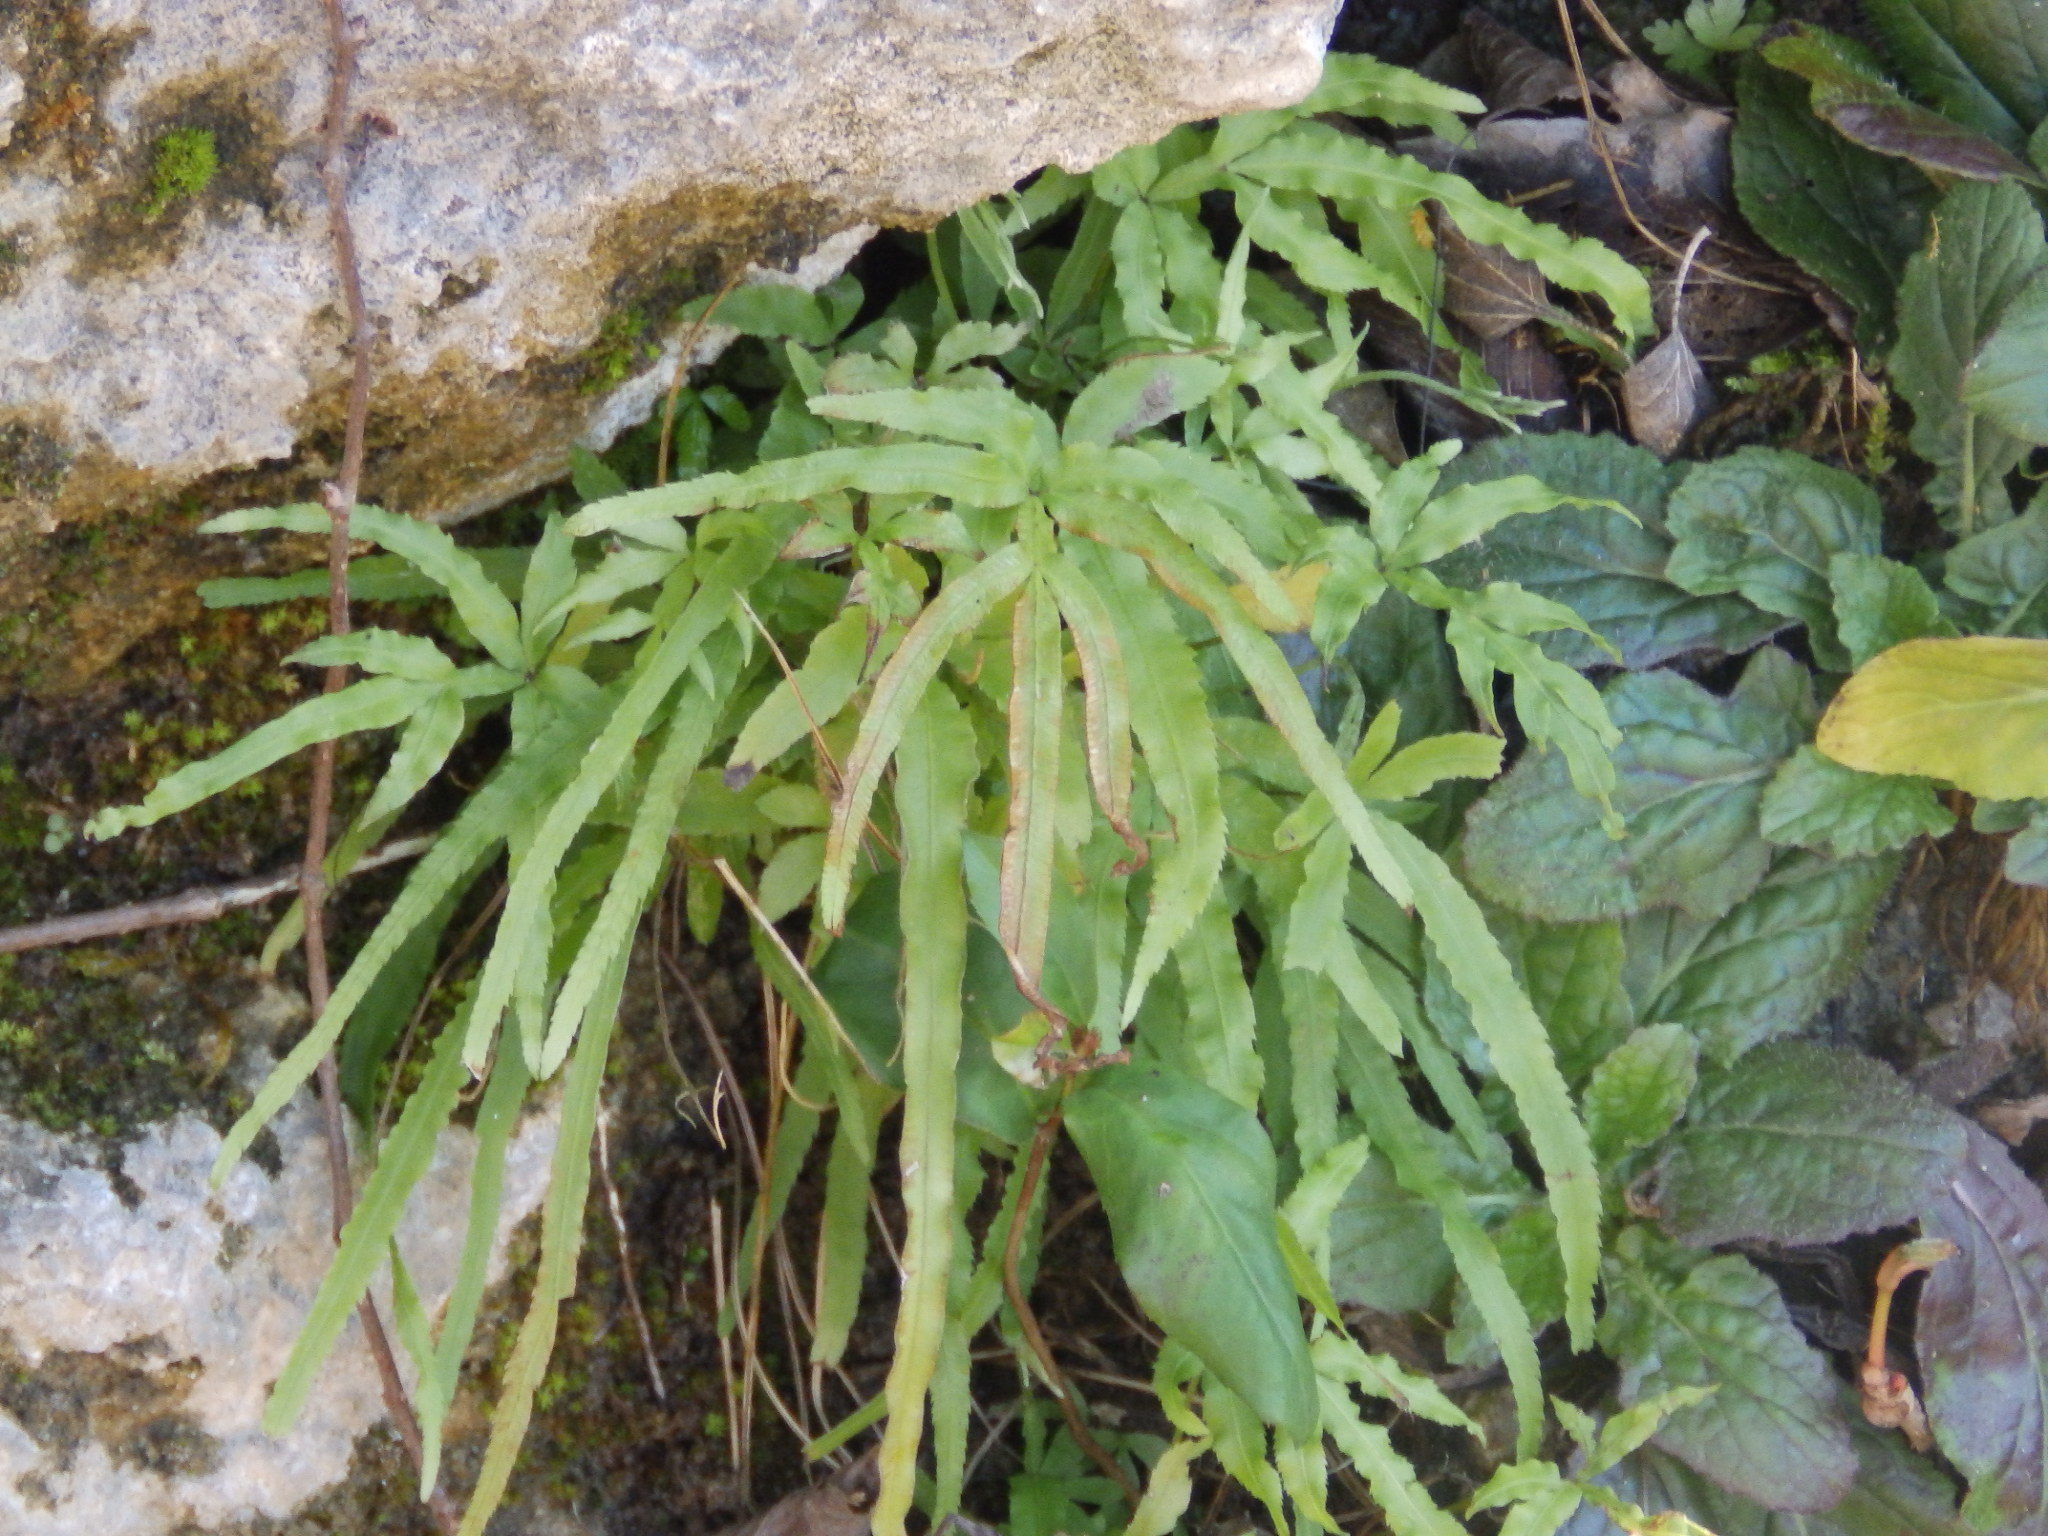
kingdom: Plantae
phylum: Tracheophyta
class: Polypodiopsida
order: Polypodiales
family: Pteridaceae
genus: Pteris
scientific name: Pteris multifida
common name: Spider brake
